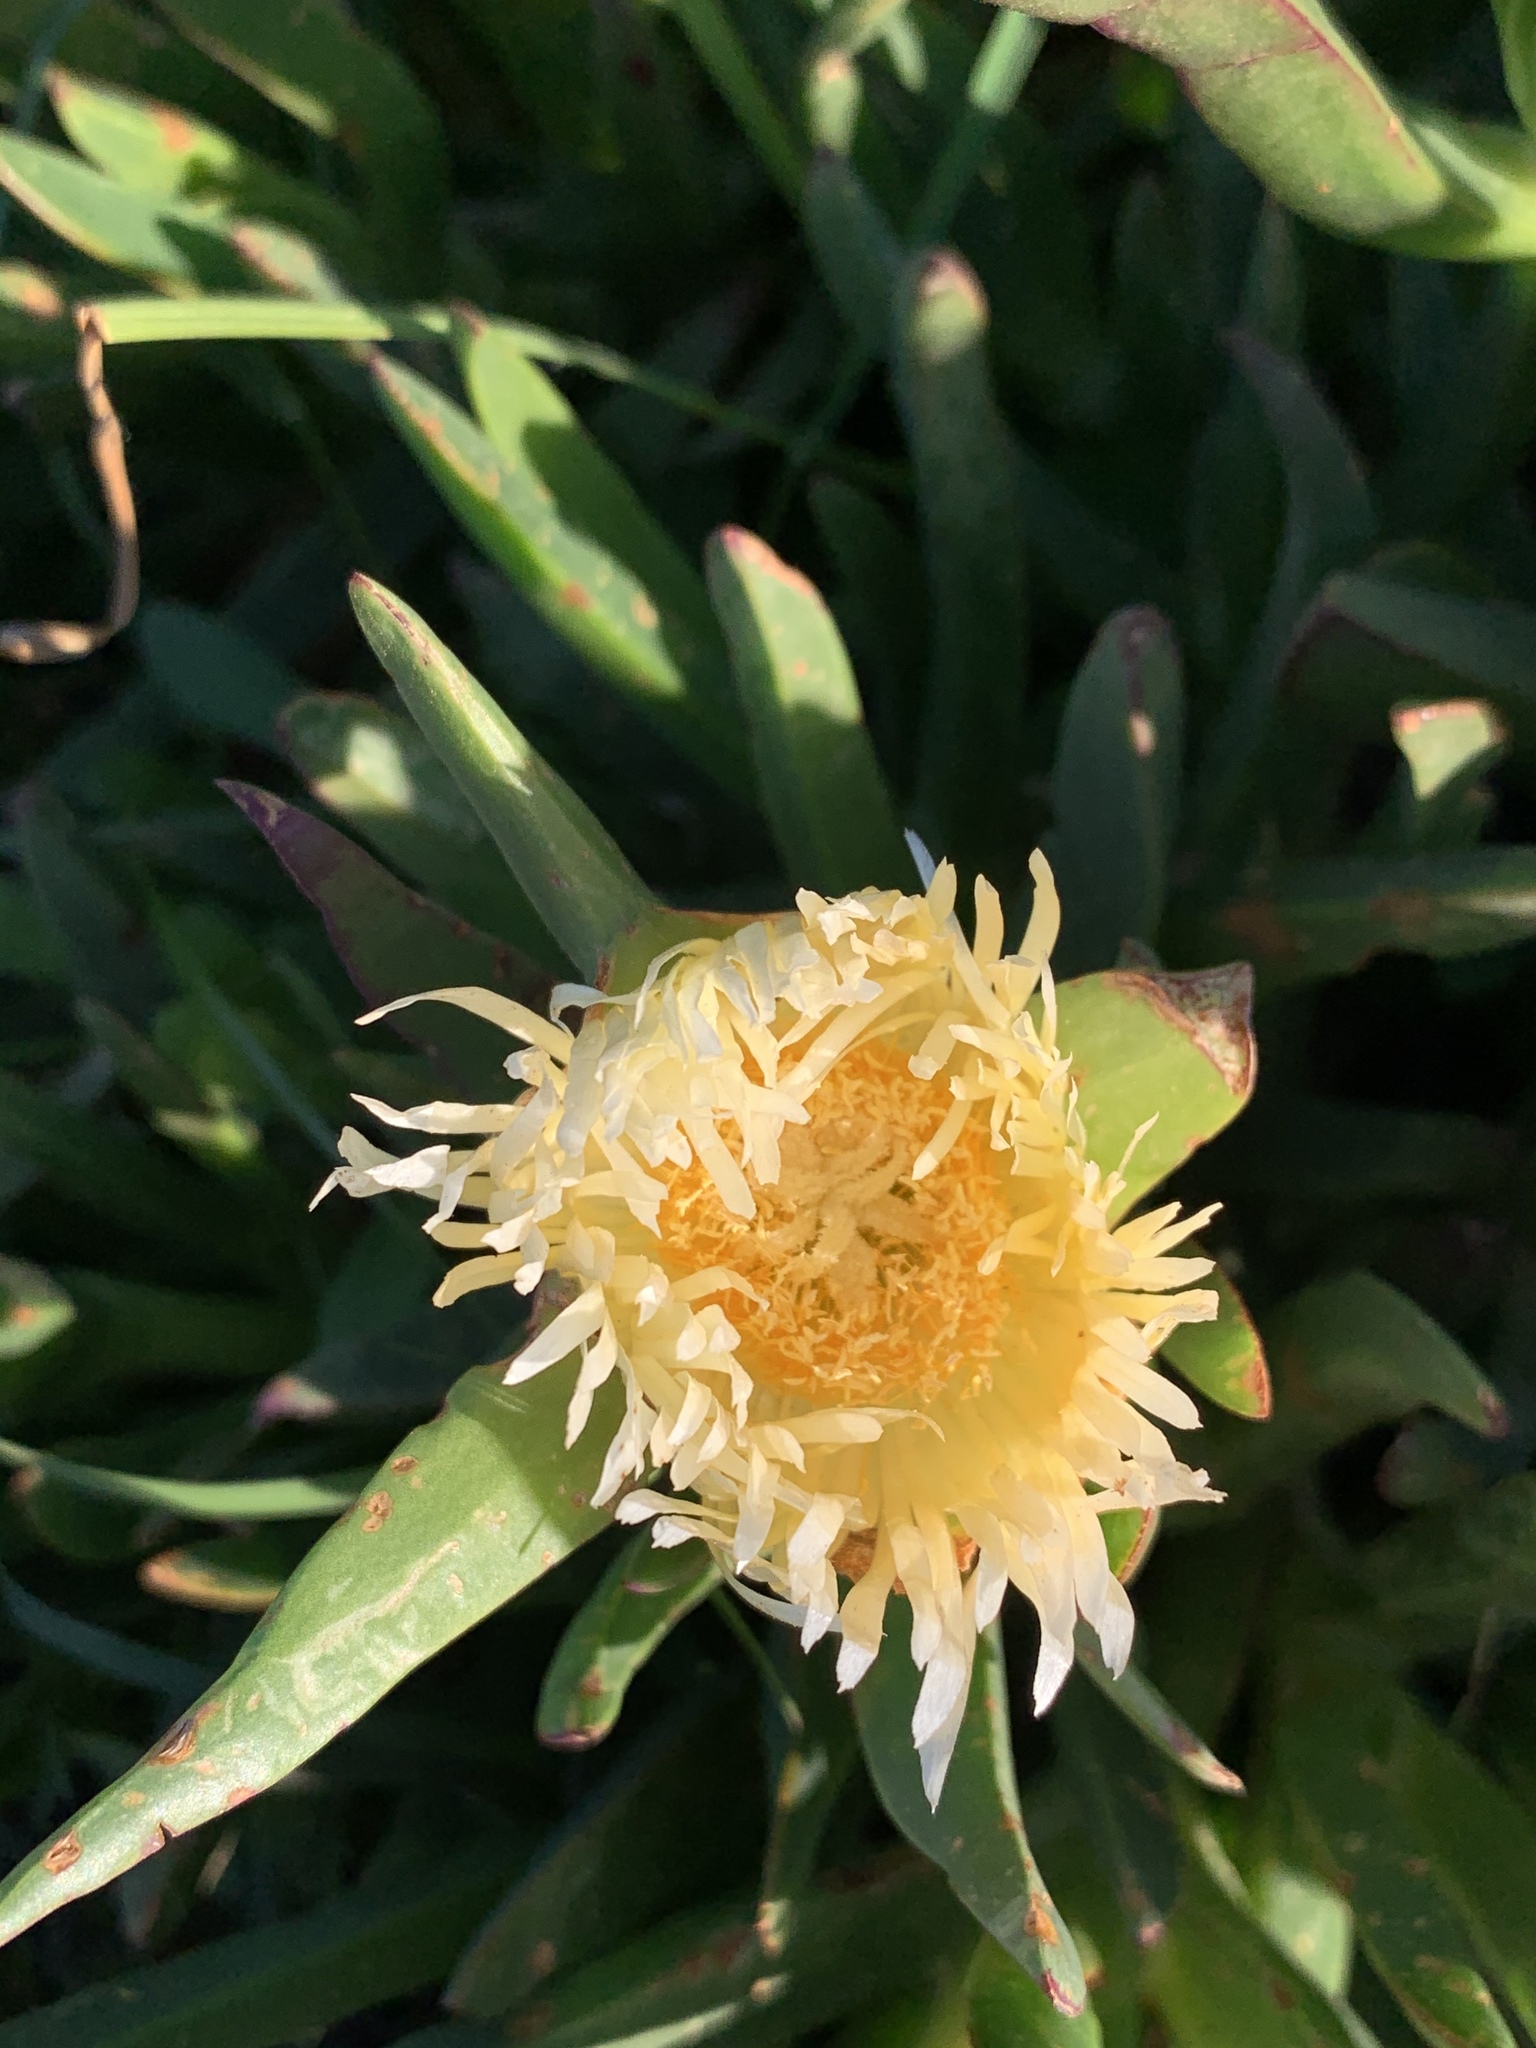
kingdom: Plantae
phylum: Tracheophyta
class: Magnoliopsida
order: Caryophyllales
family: Aizoaceae
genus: Carpobrotus
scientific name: Carpobrotus edulis
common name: Hottentot-fig
